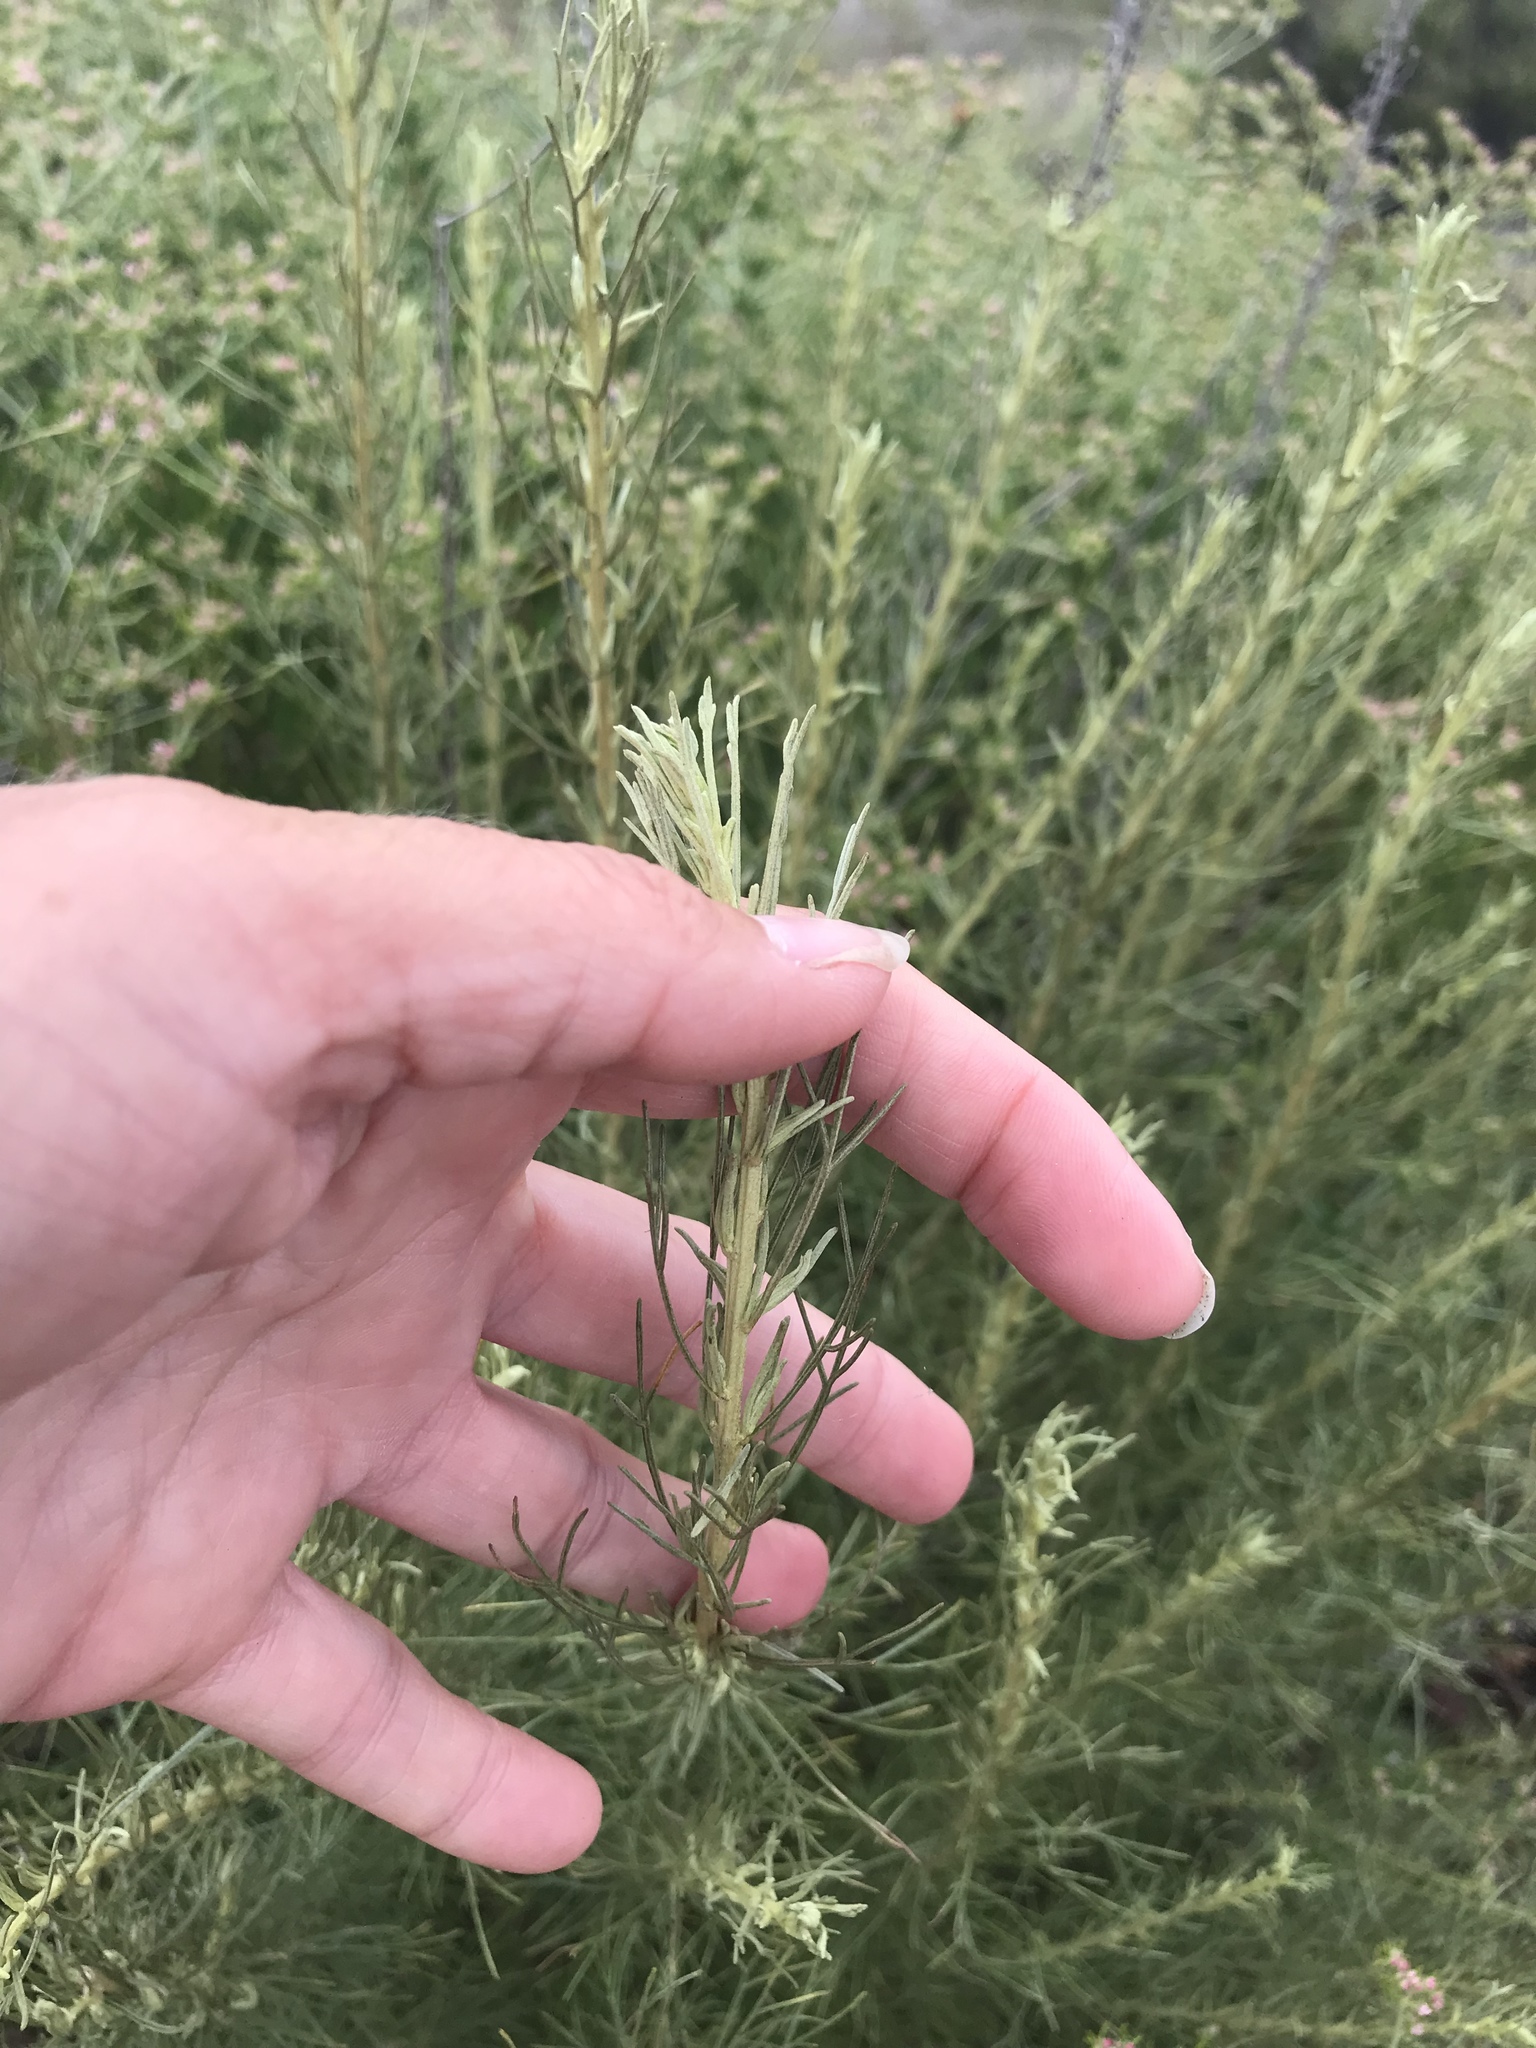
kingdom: Plantae
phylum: Tracheophyta
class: Magnoliopsida
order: Asterales
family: Asteraceae
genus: Artemisia
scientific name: Artemisia californica
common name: California sagebrush
